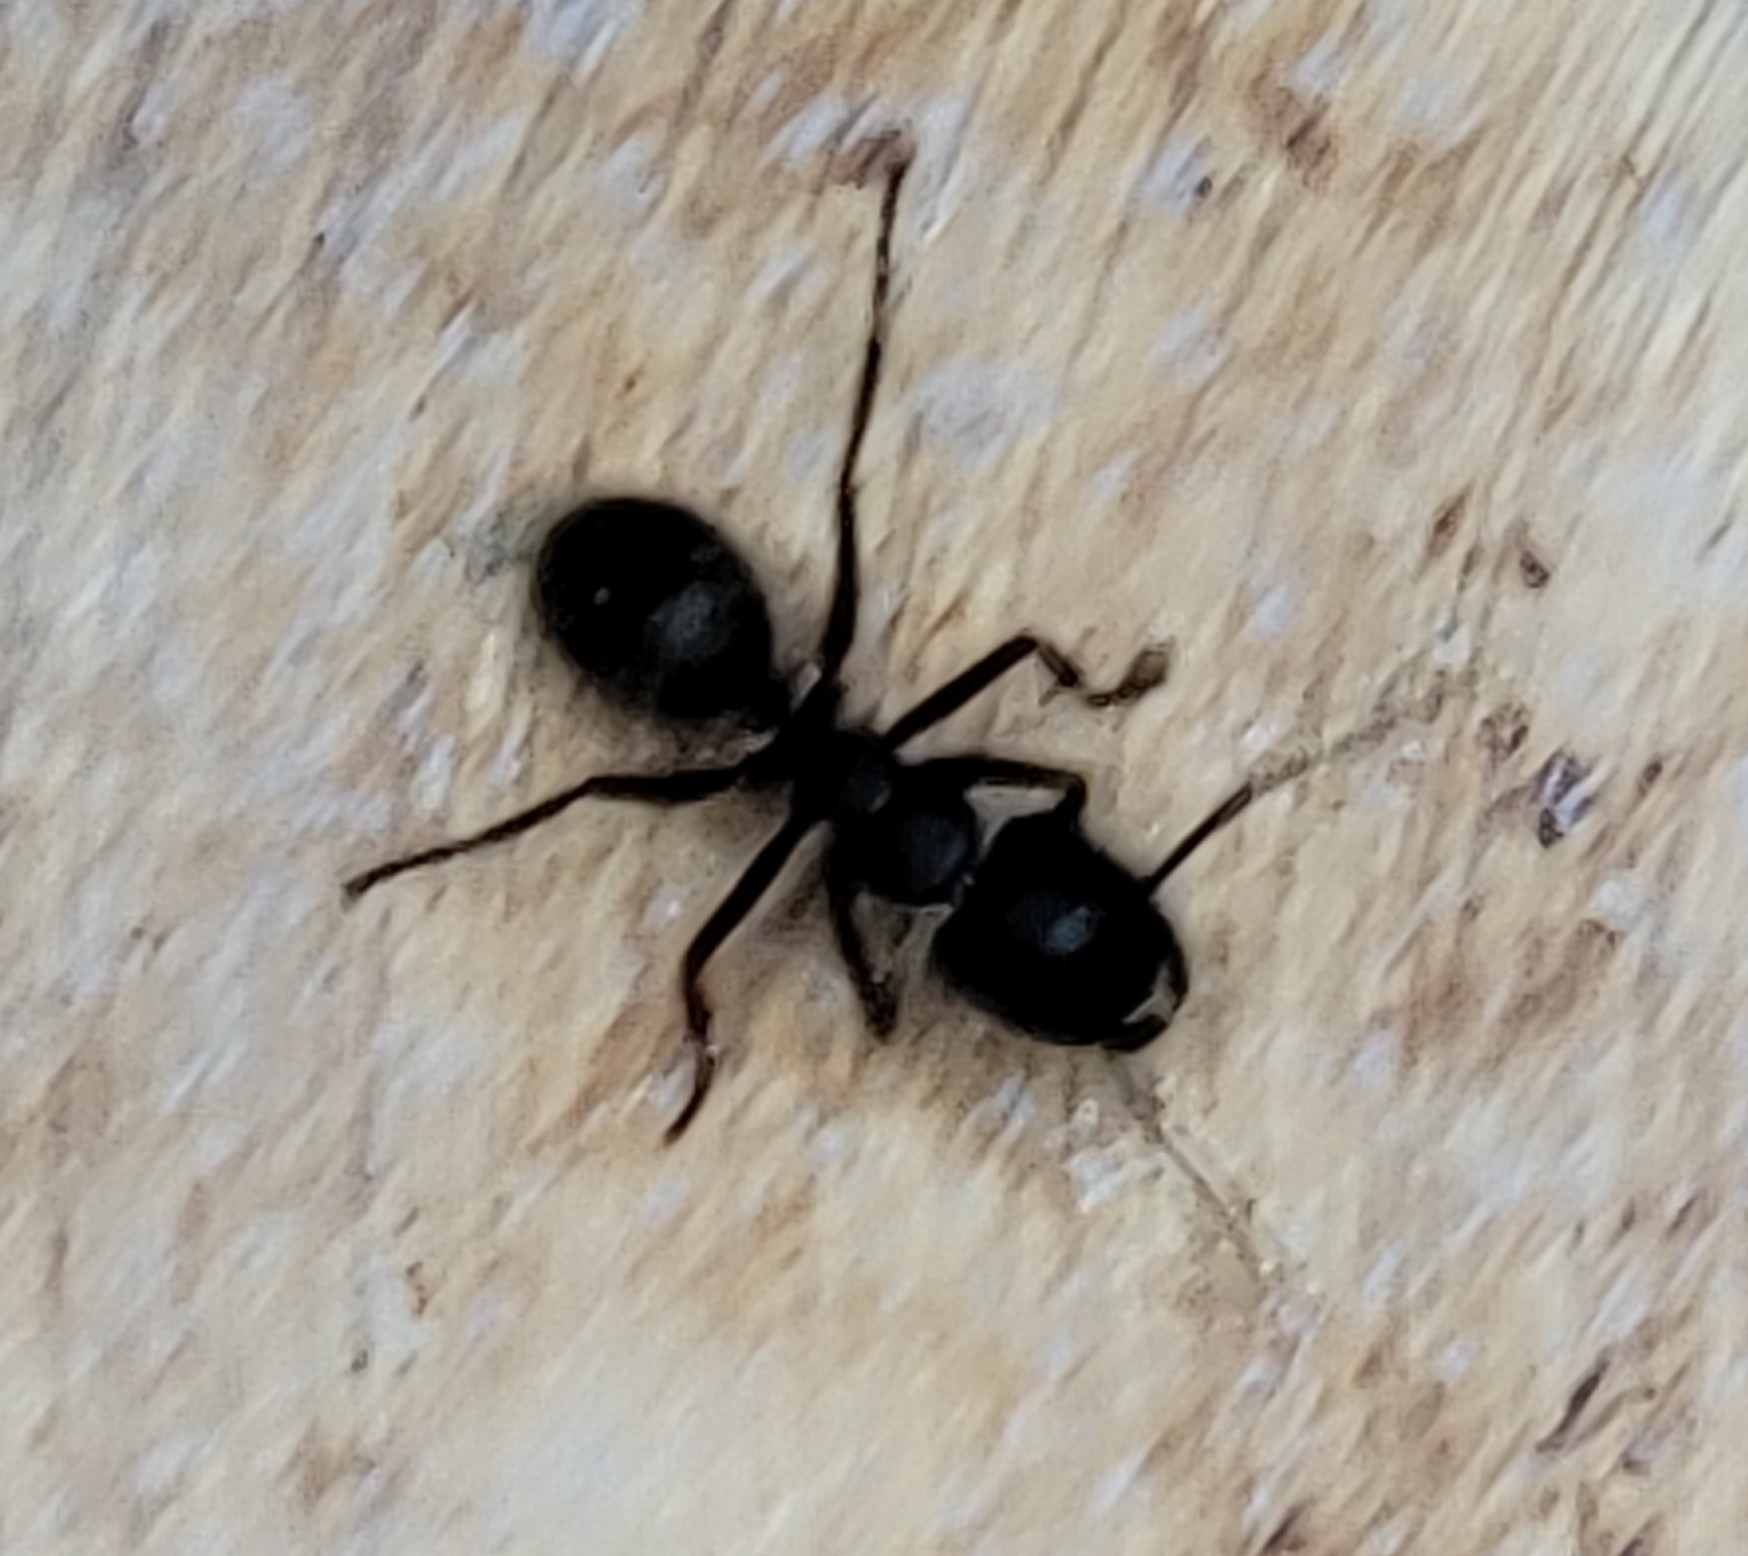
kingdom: Animalia
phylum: Arthropoda
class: Insecta
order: Hymenoptera
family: Formicidae
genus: Camponotus
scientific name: Camponotus pennsylvanicus
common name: Black carpenter ant
